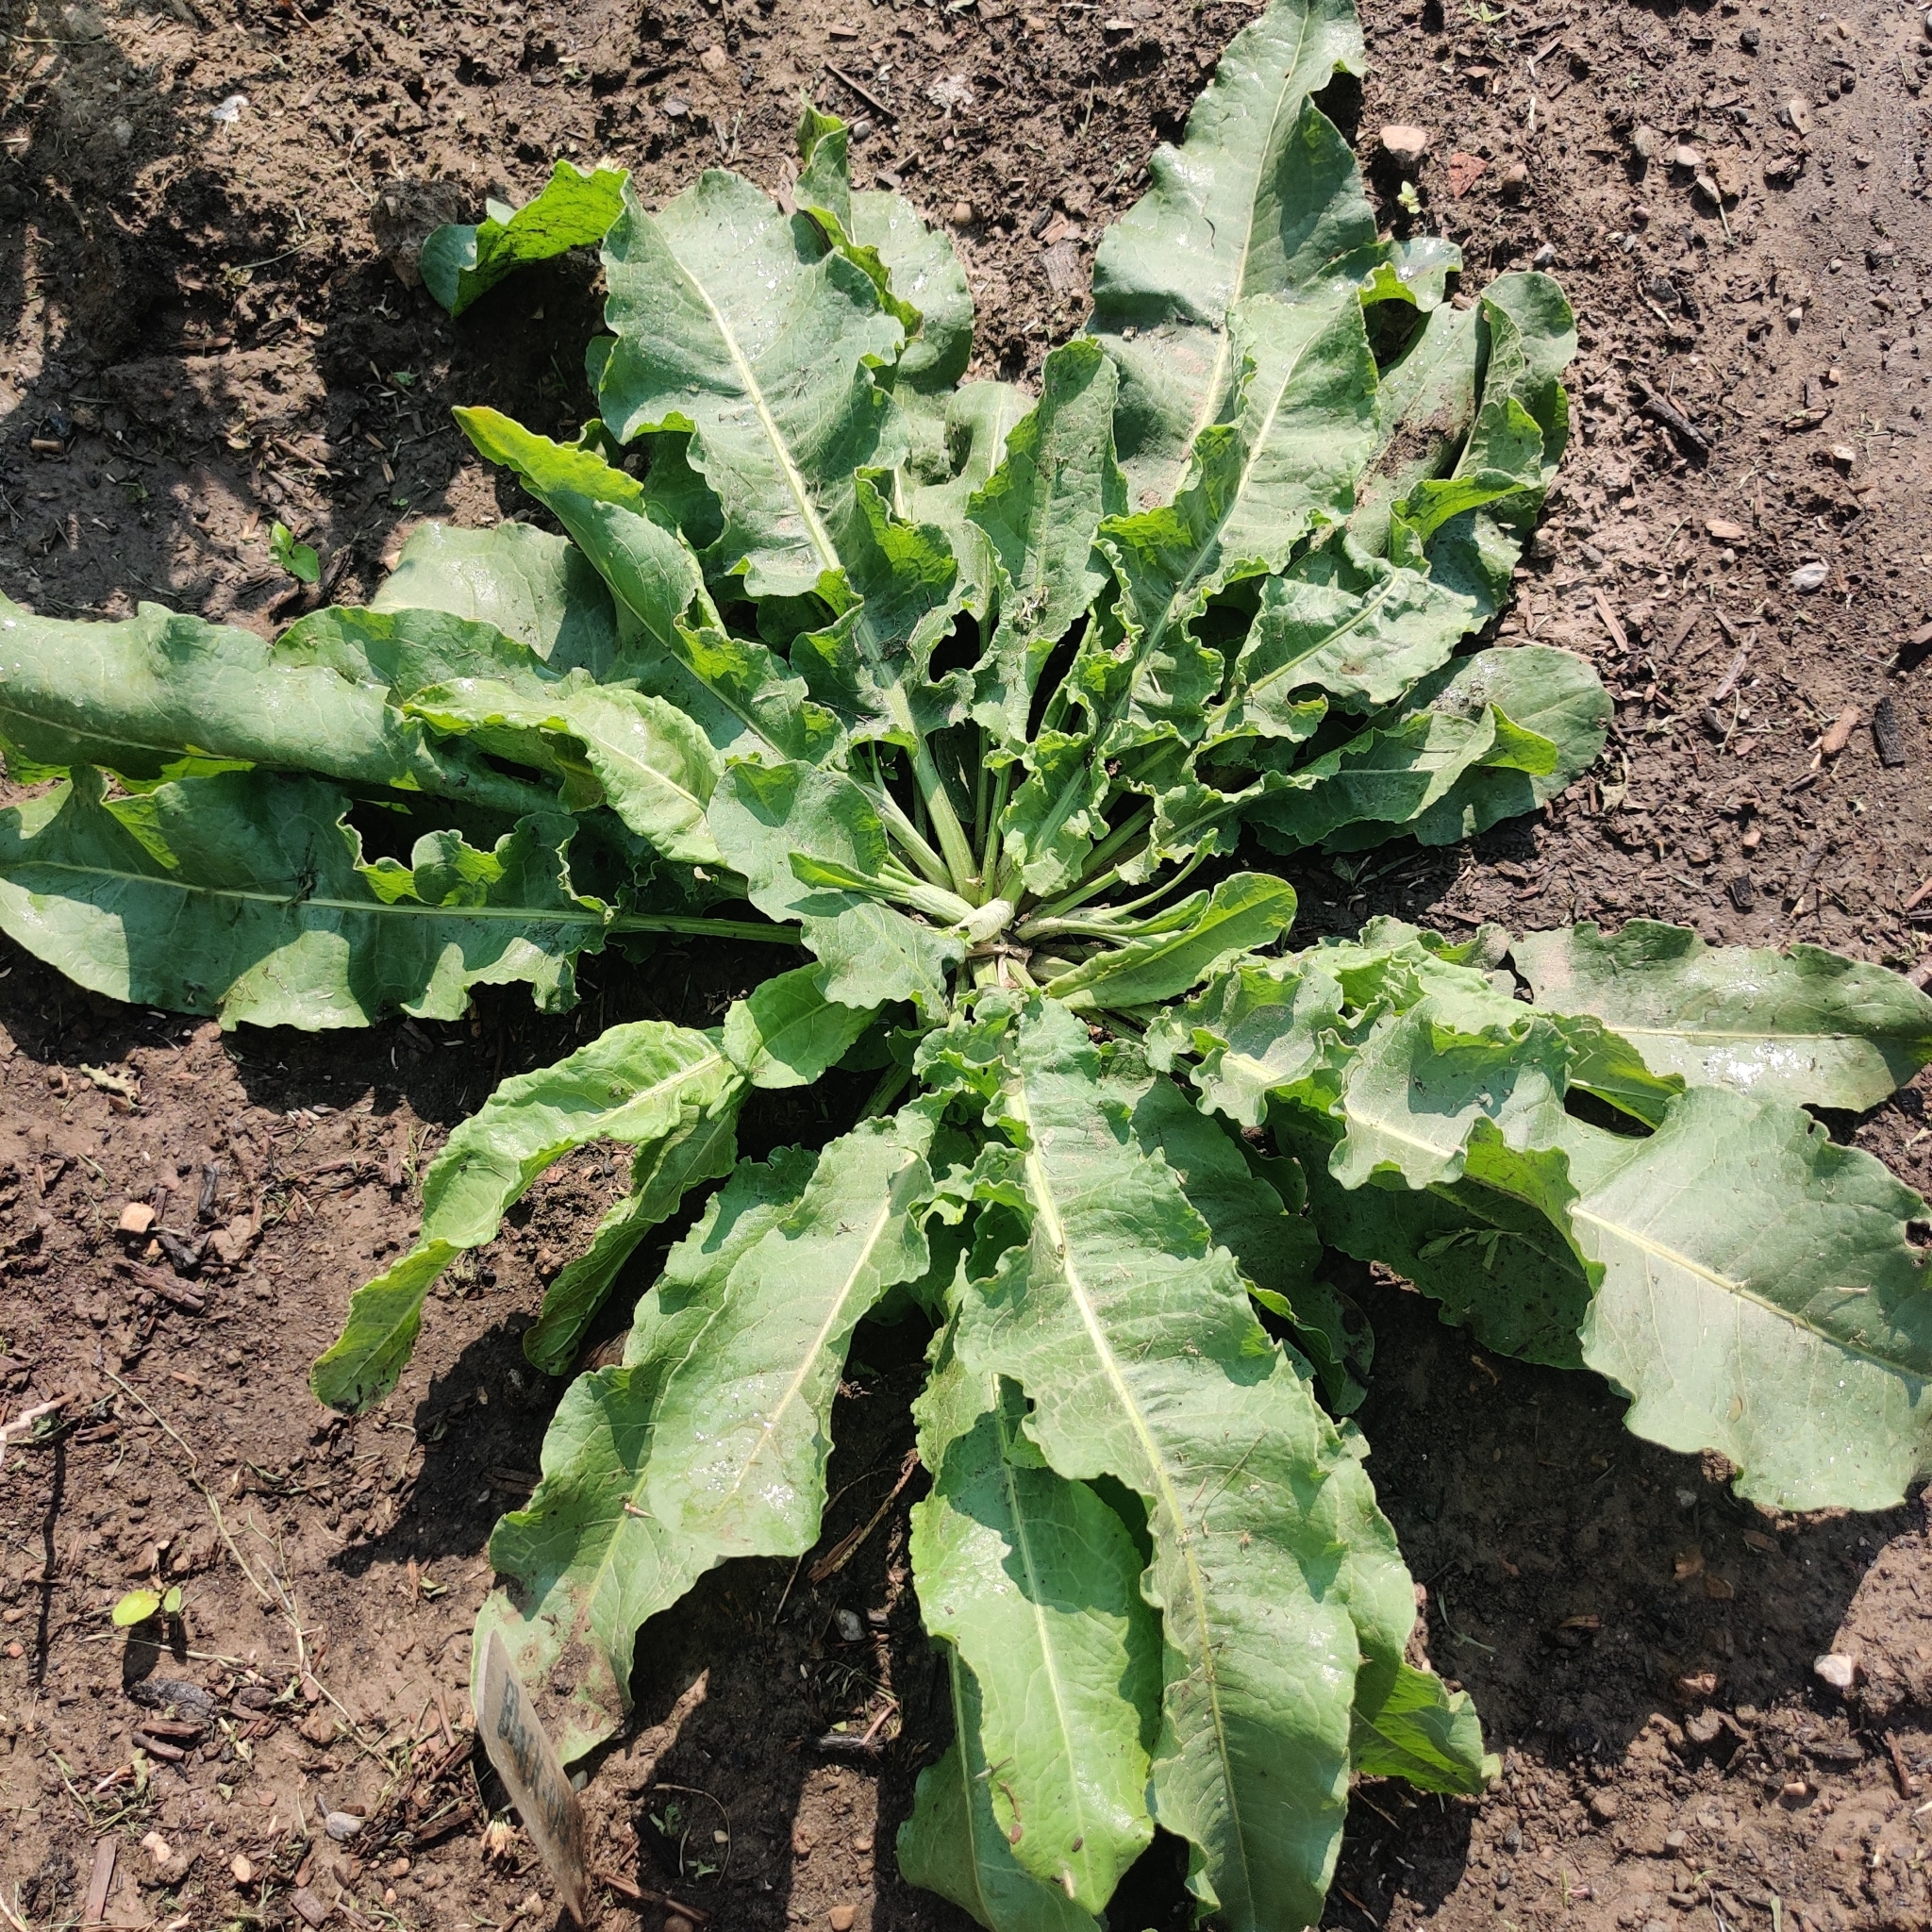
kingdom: Plantae
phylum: Tracheophyta
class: Magnoliopsida
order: Caryophyllales
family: Polygonaceae
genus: Rumex
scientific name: Rumex crispus
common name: Curled dock
